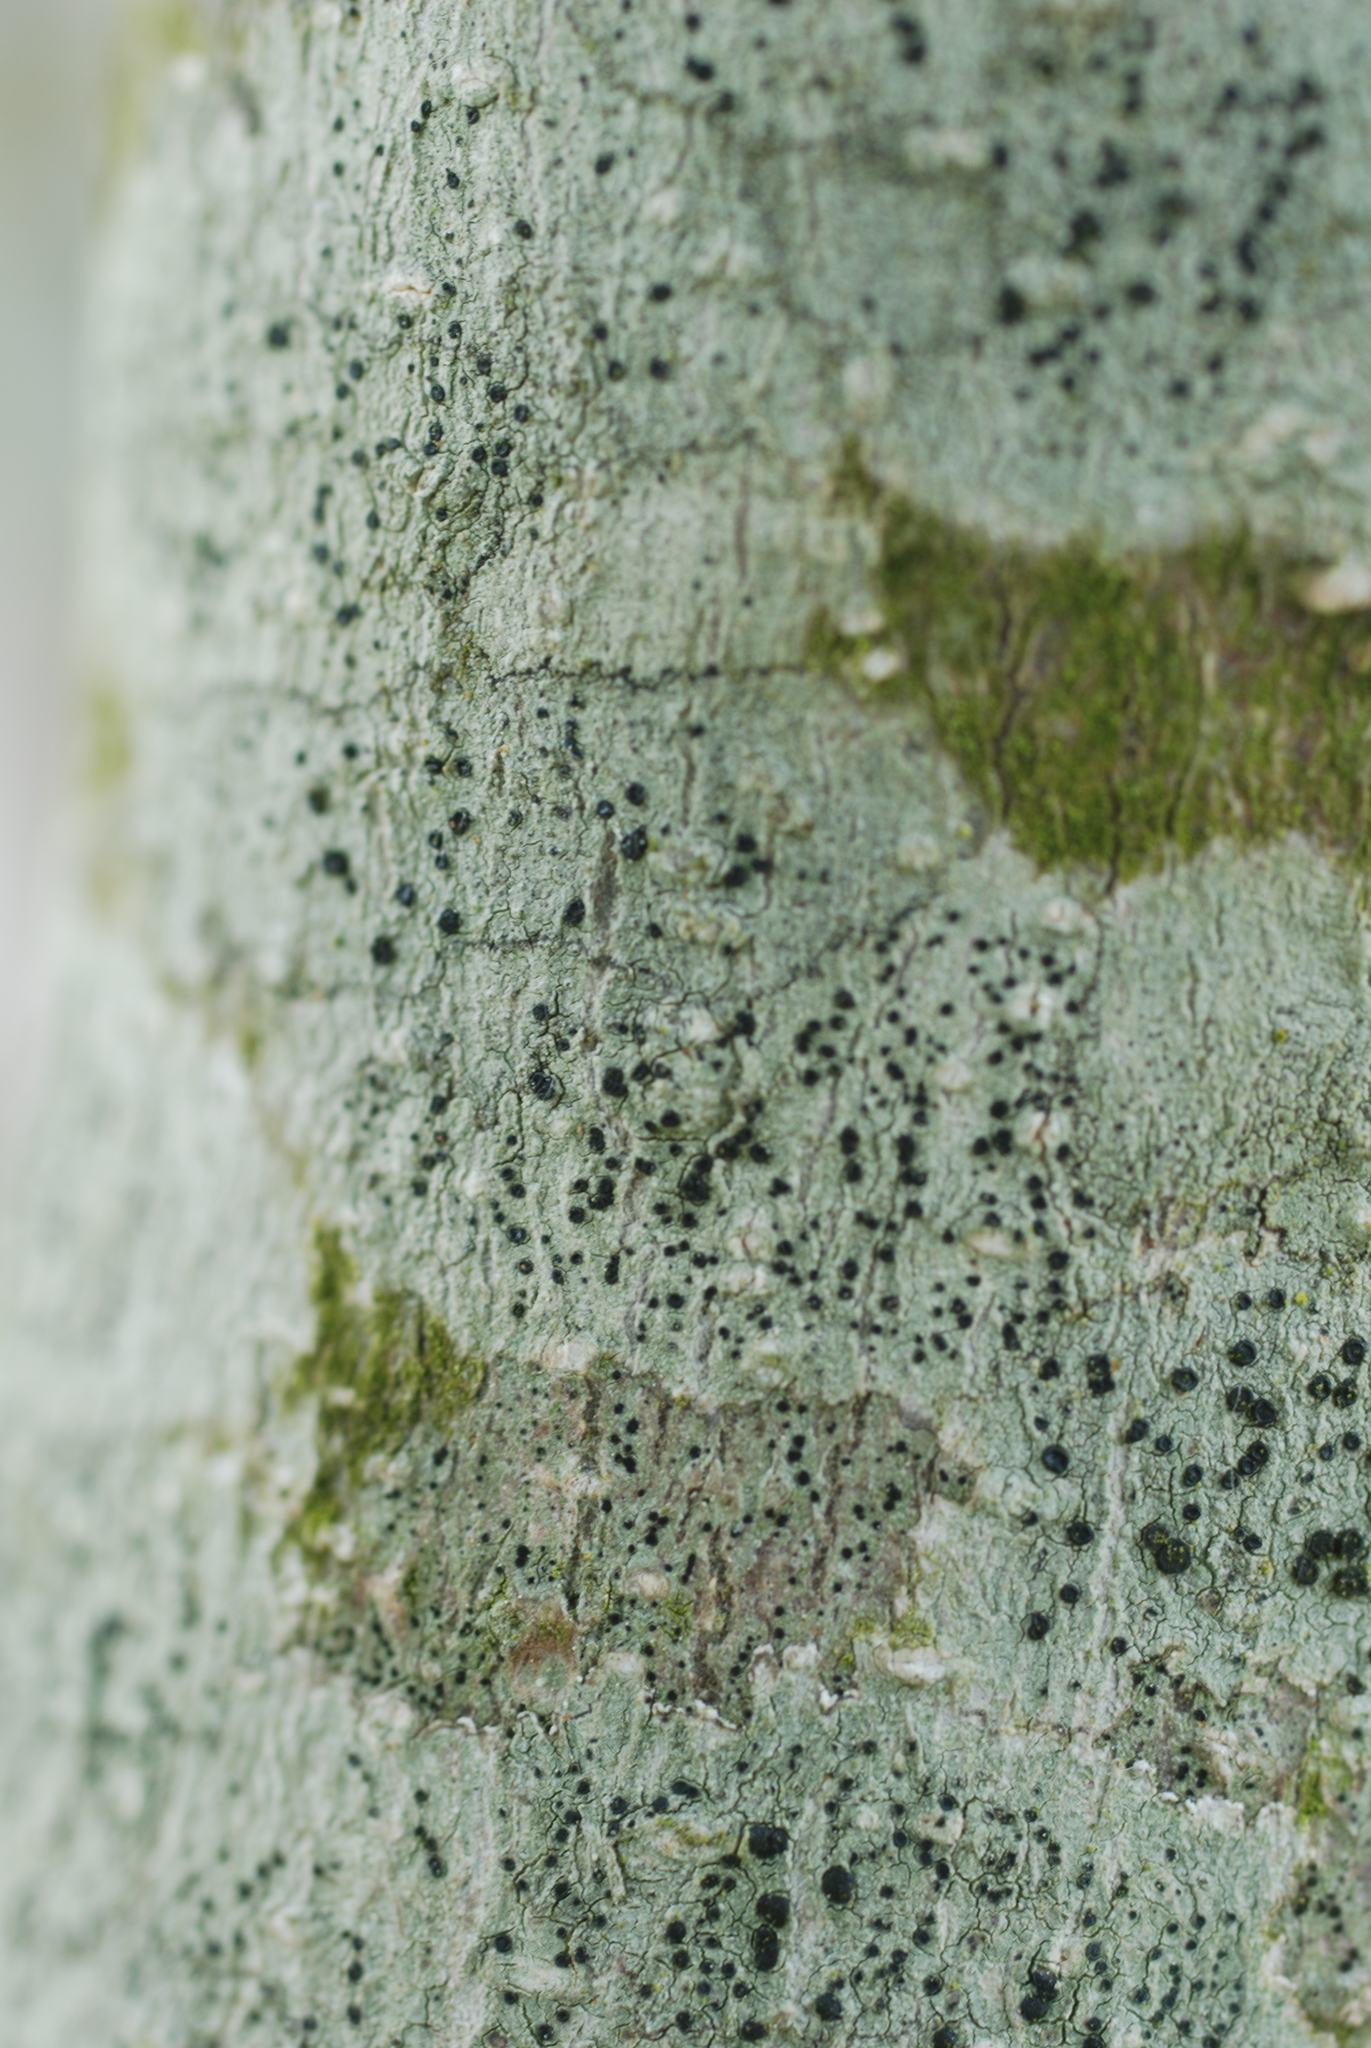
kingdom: Fungi
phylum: Ascomycota
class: Lecanoromycetes
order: Lecanorales
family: Lecanoraceae
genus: Lecidella
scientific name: Lecidella elaeochroma
